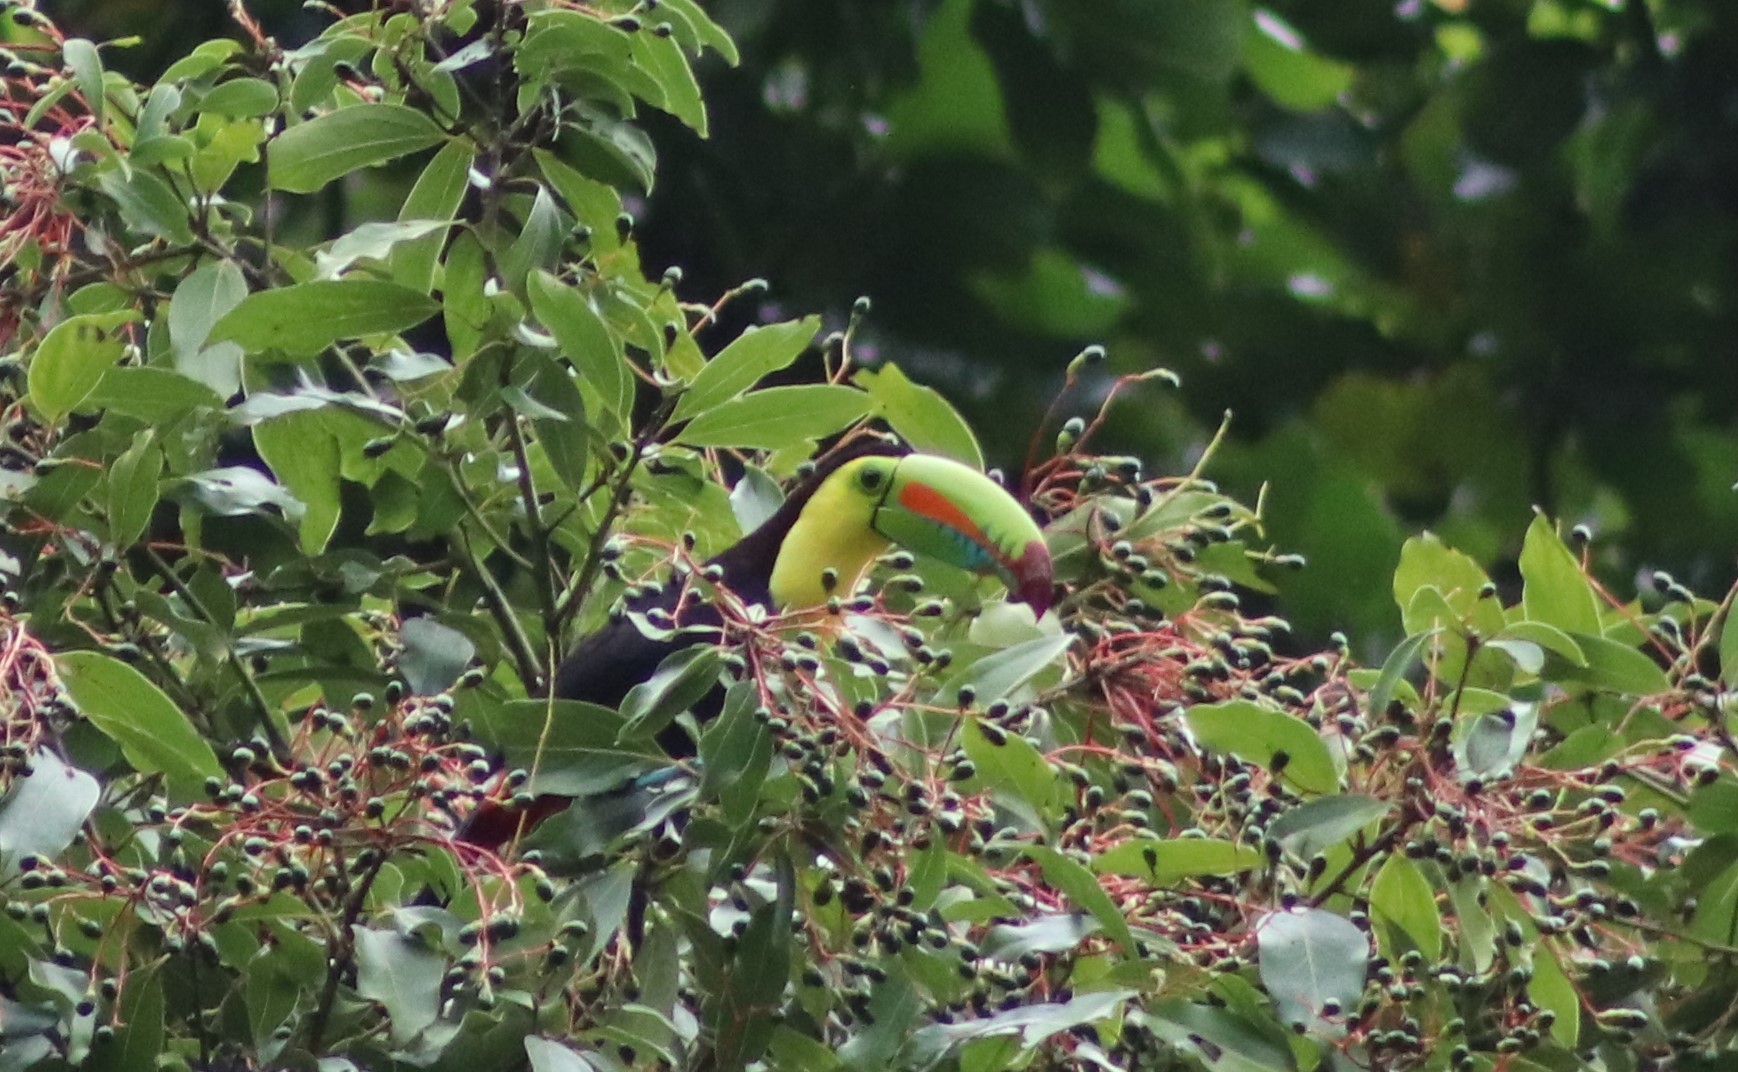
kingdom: Animalia
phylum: Chordata
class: Aves
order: Piciformes
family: Ramphastidae
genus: Ramphastos
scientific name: Ramphastos sulfuratus
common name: Keel-billed toucan
